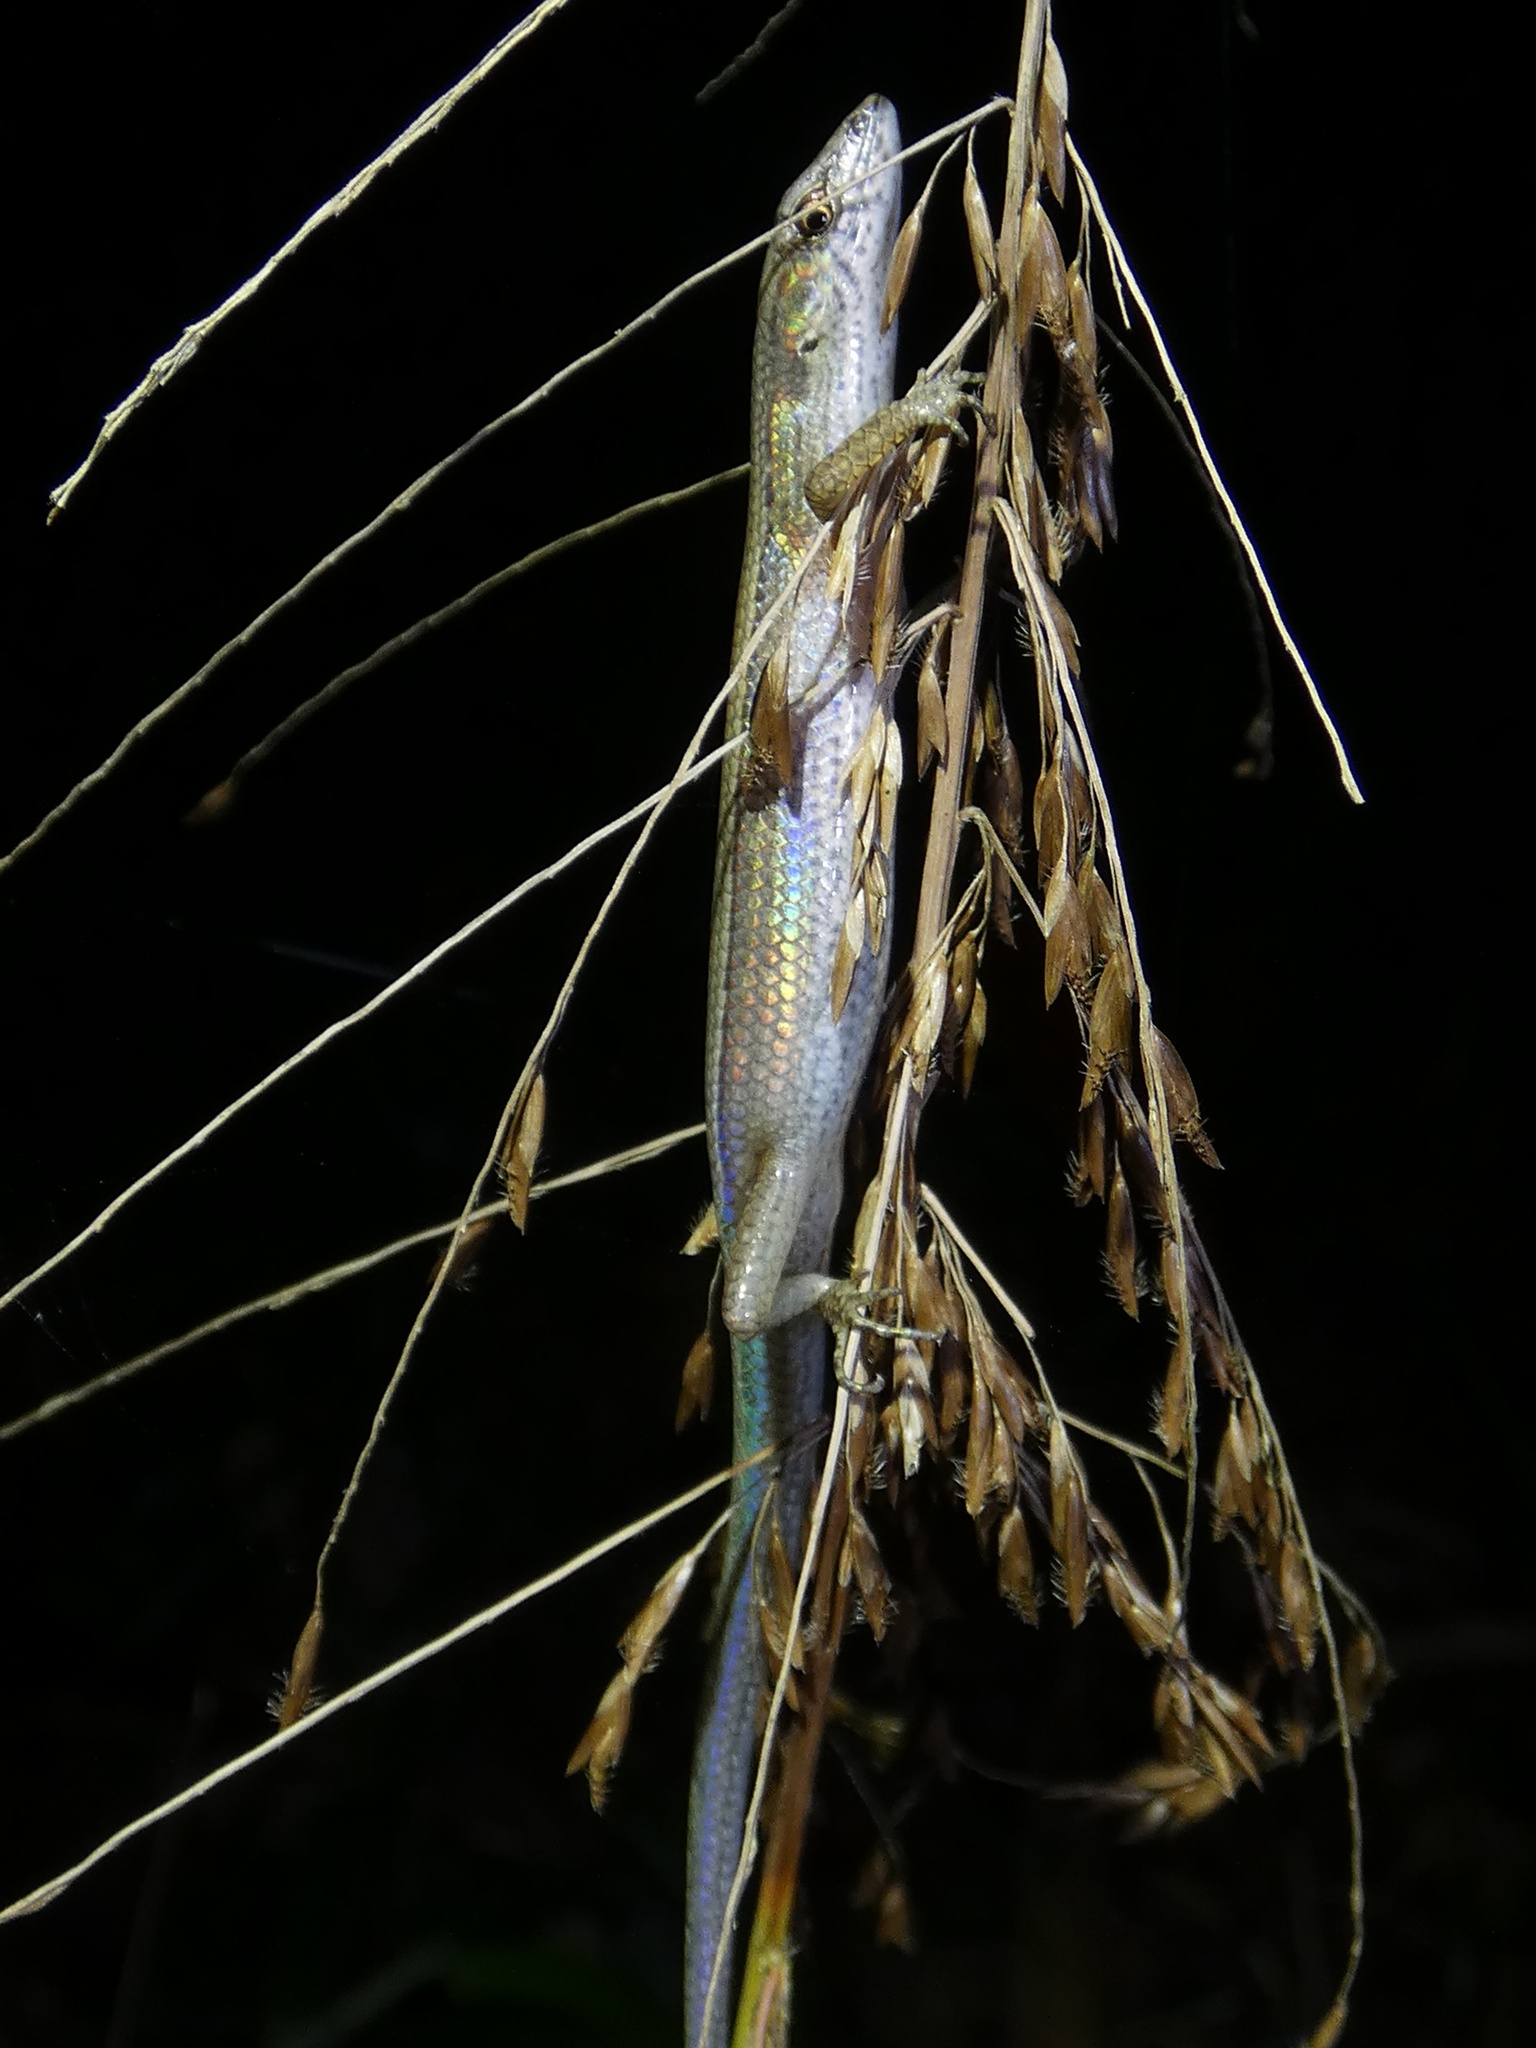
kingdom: Animalia
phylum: Chordata
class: Squamata
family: Scincidae
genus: Saproscincus
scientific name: Saproscincus lewisi
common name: Northern wet tropics shadeskink
